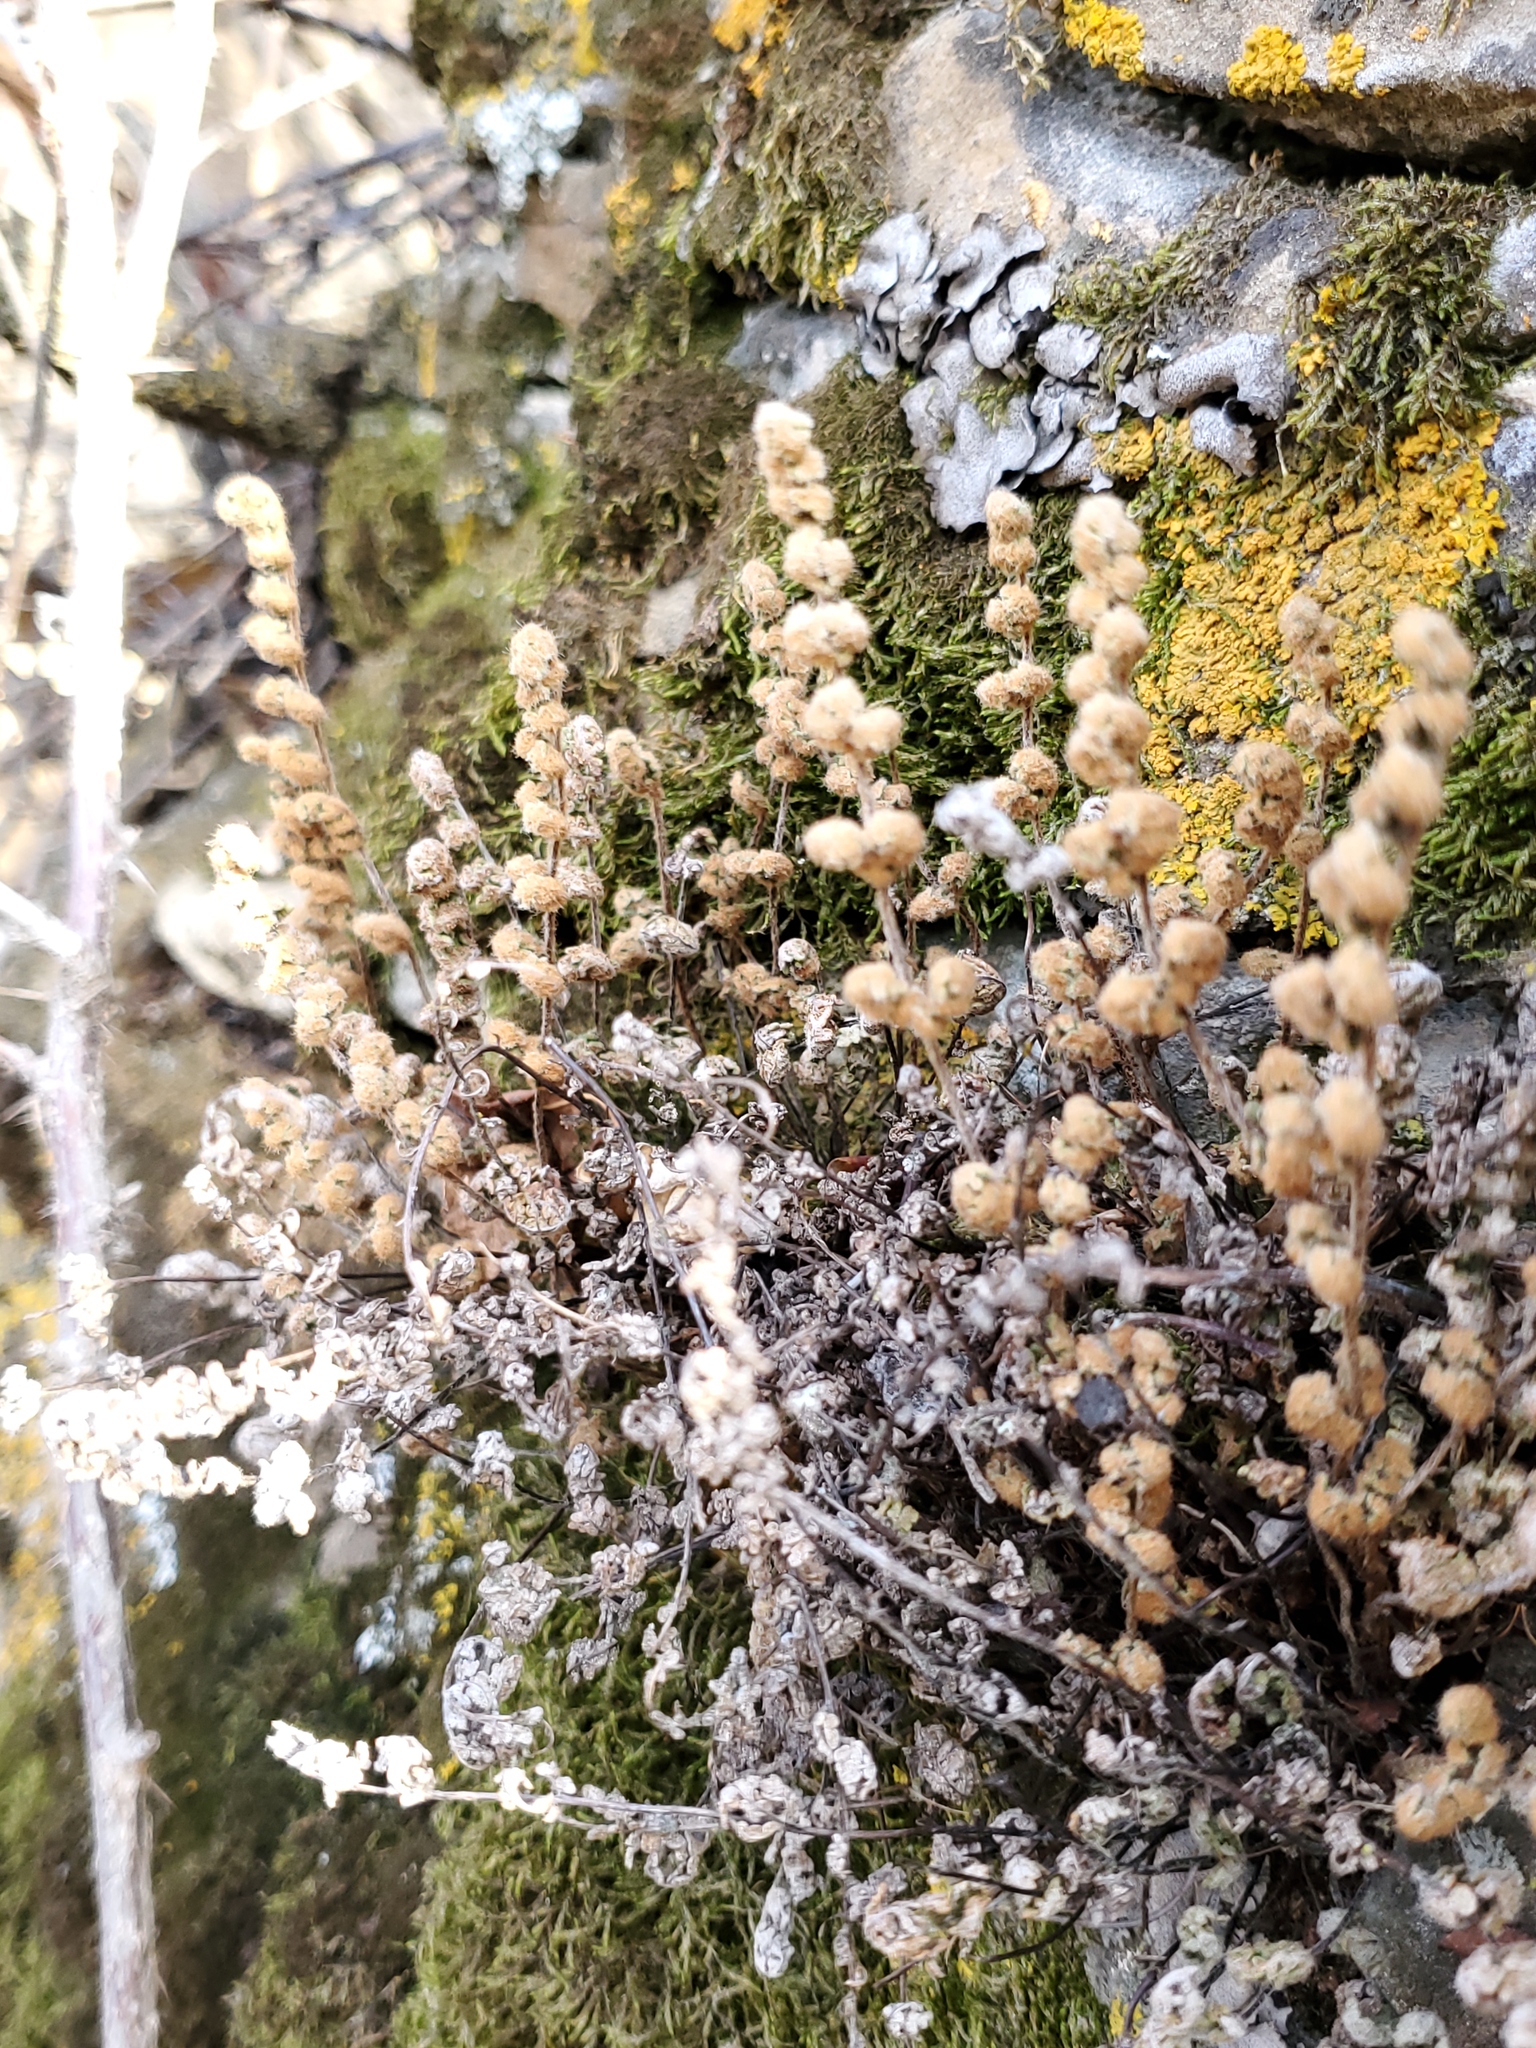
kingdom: Plantae
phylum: Tracheophyta
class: Polypodiopsida
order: Polypodiales
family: Pteridaceae
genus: Myriopteris
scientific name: Myriopteris gracilis
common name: Fee's lip fern
